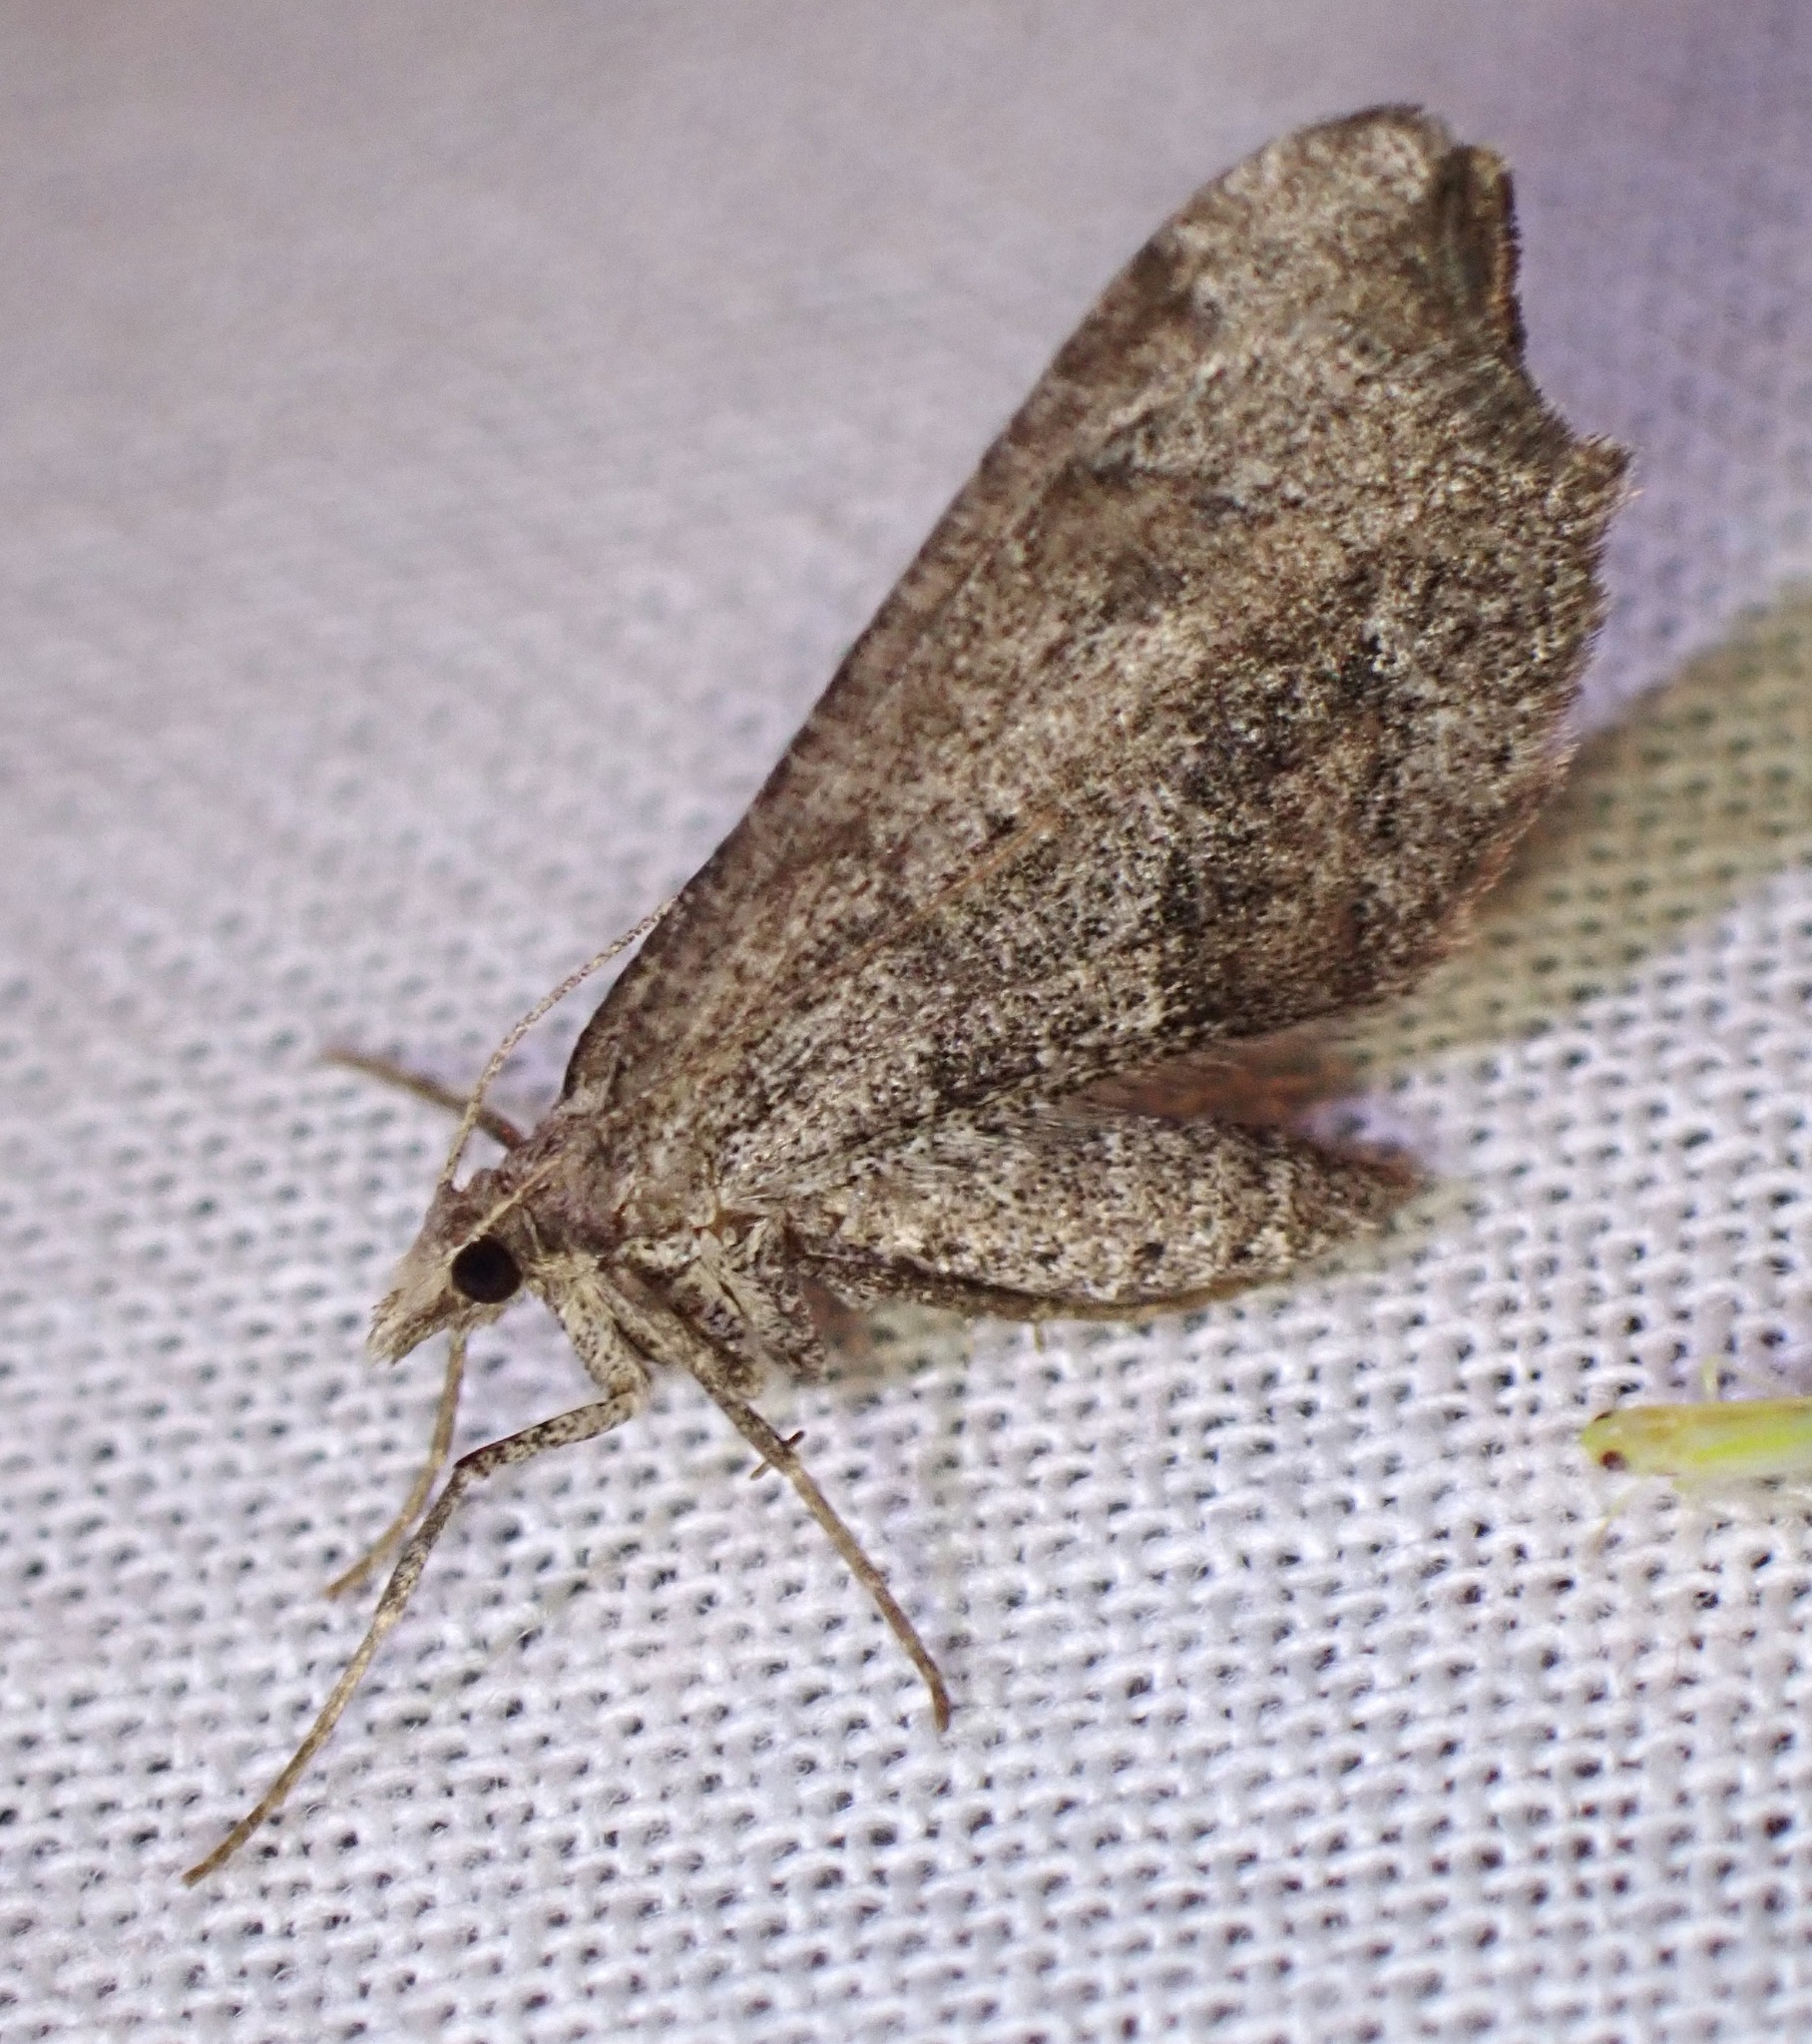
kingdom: Animalia
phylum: Arthropoda
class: Insecta
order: Lepidoptera
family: Geometridae
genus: Macaria
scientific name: Macaria marcescaria
